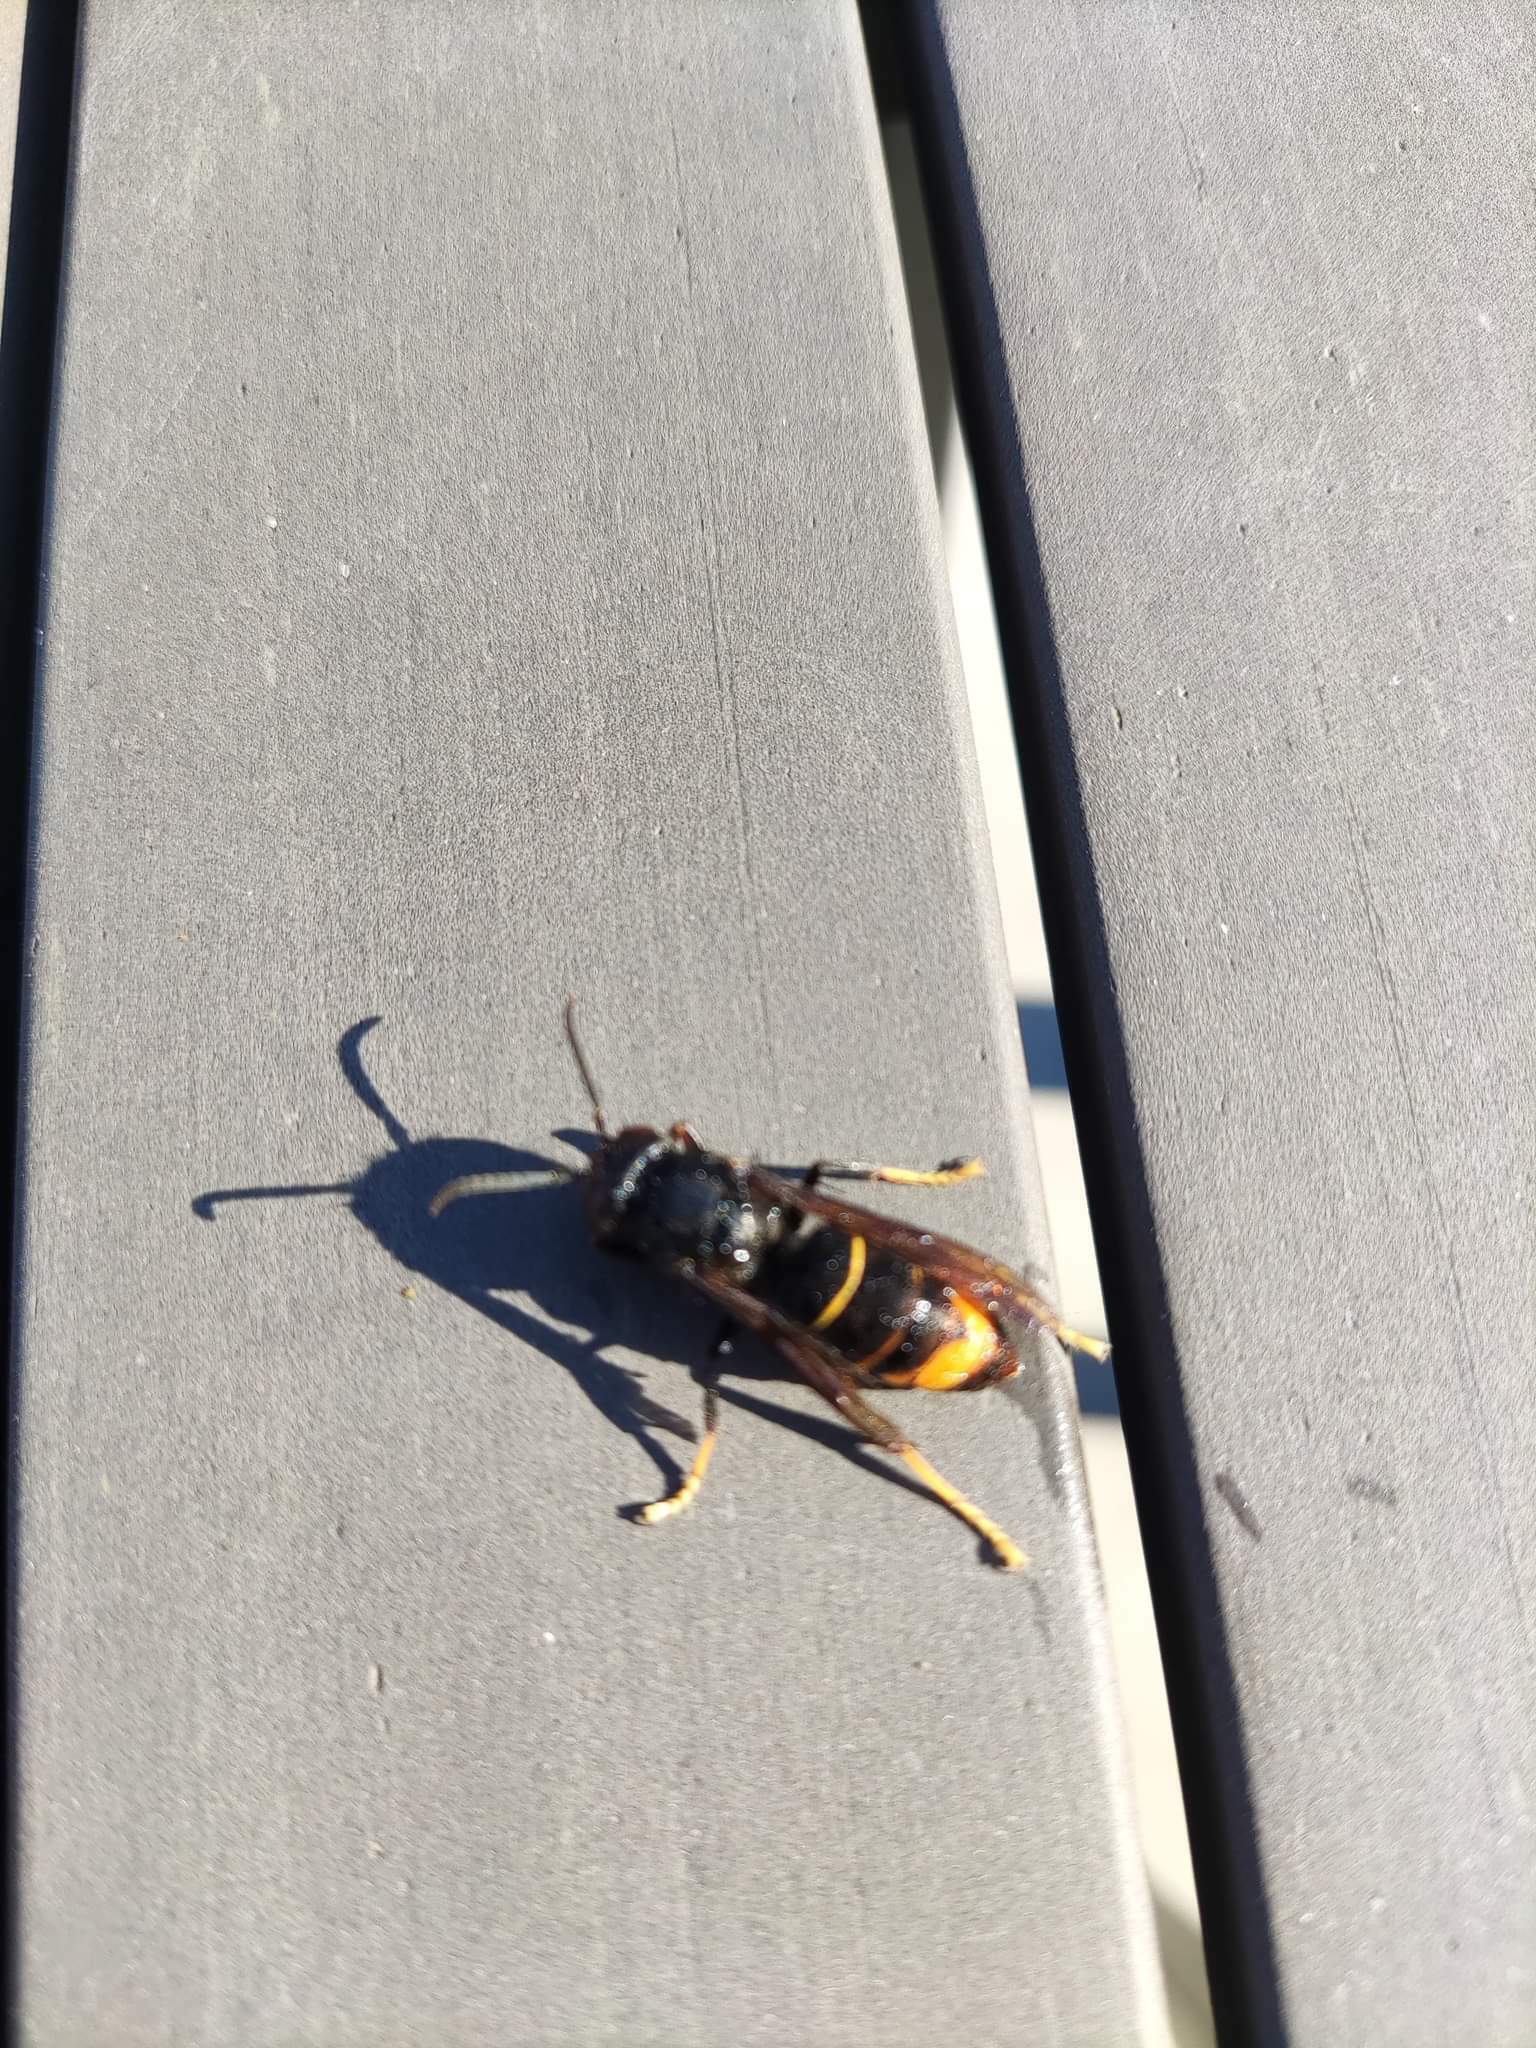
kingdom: Animalia
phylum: Arthropoda
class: Insecta
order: Hymenoptera
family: Vespidae
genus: Vespa
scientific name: Vespa velutina
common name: Asian hornet
